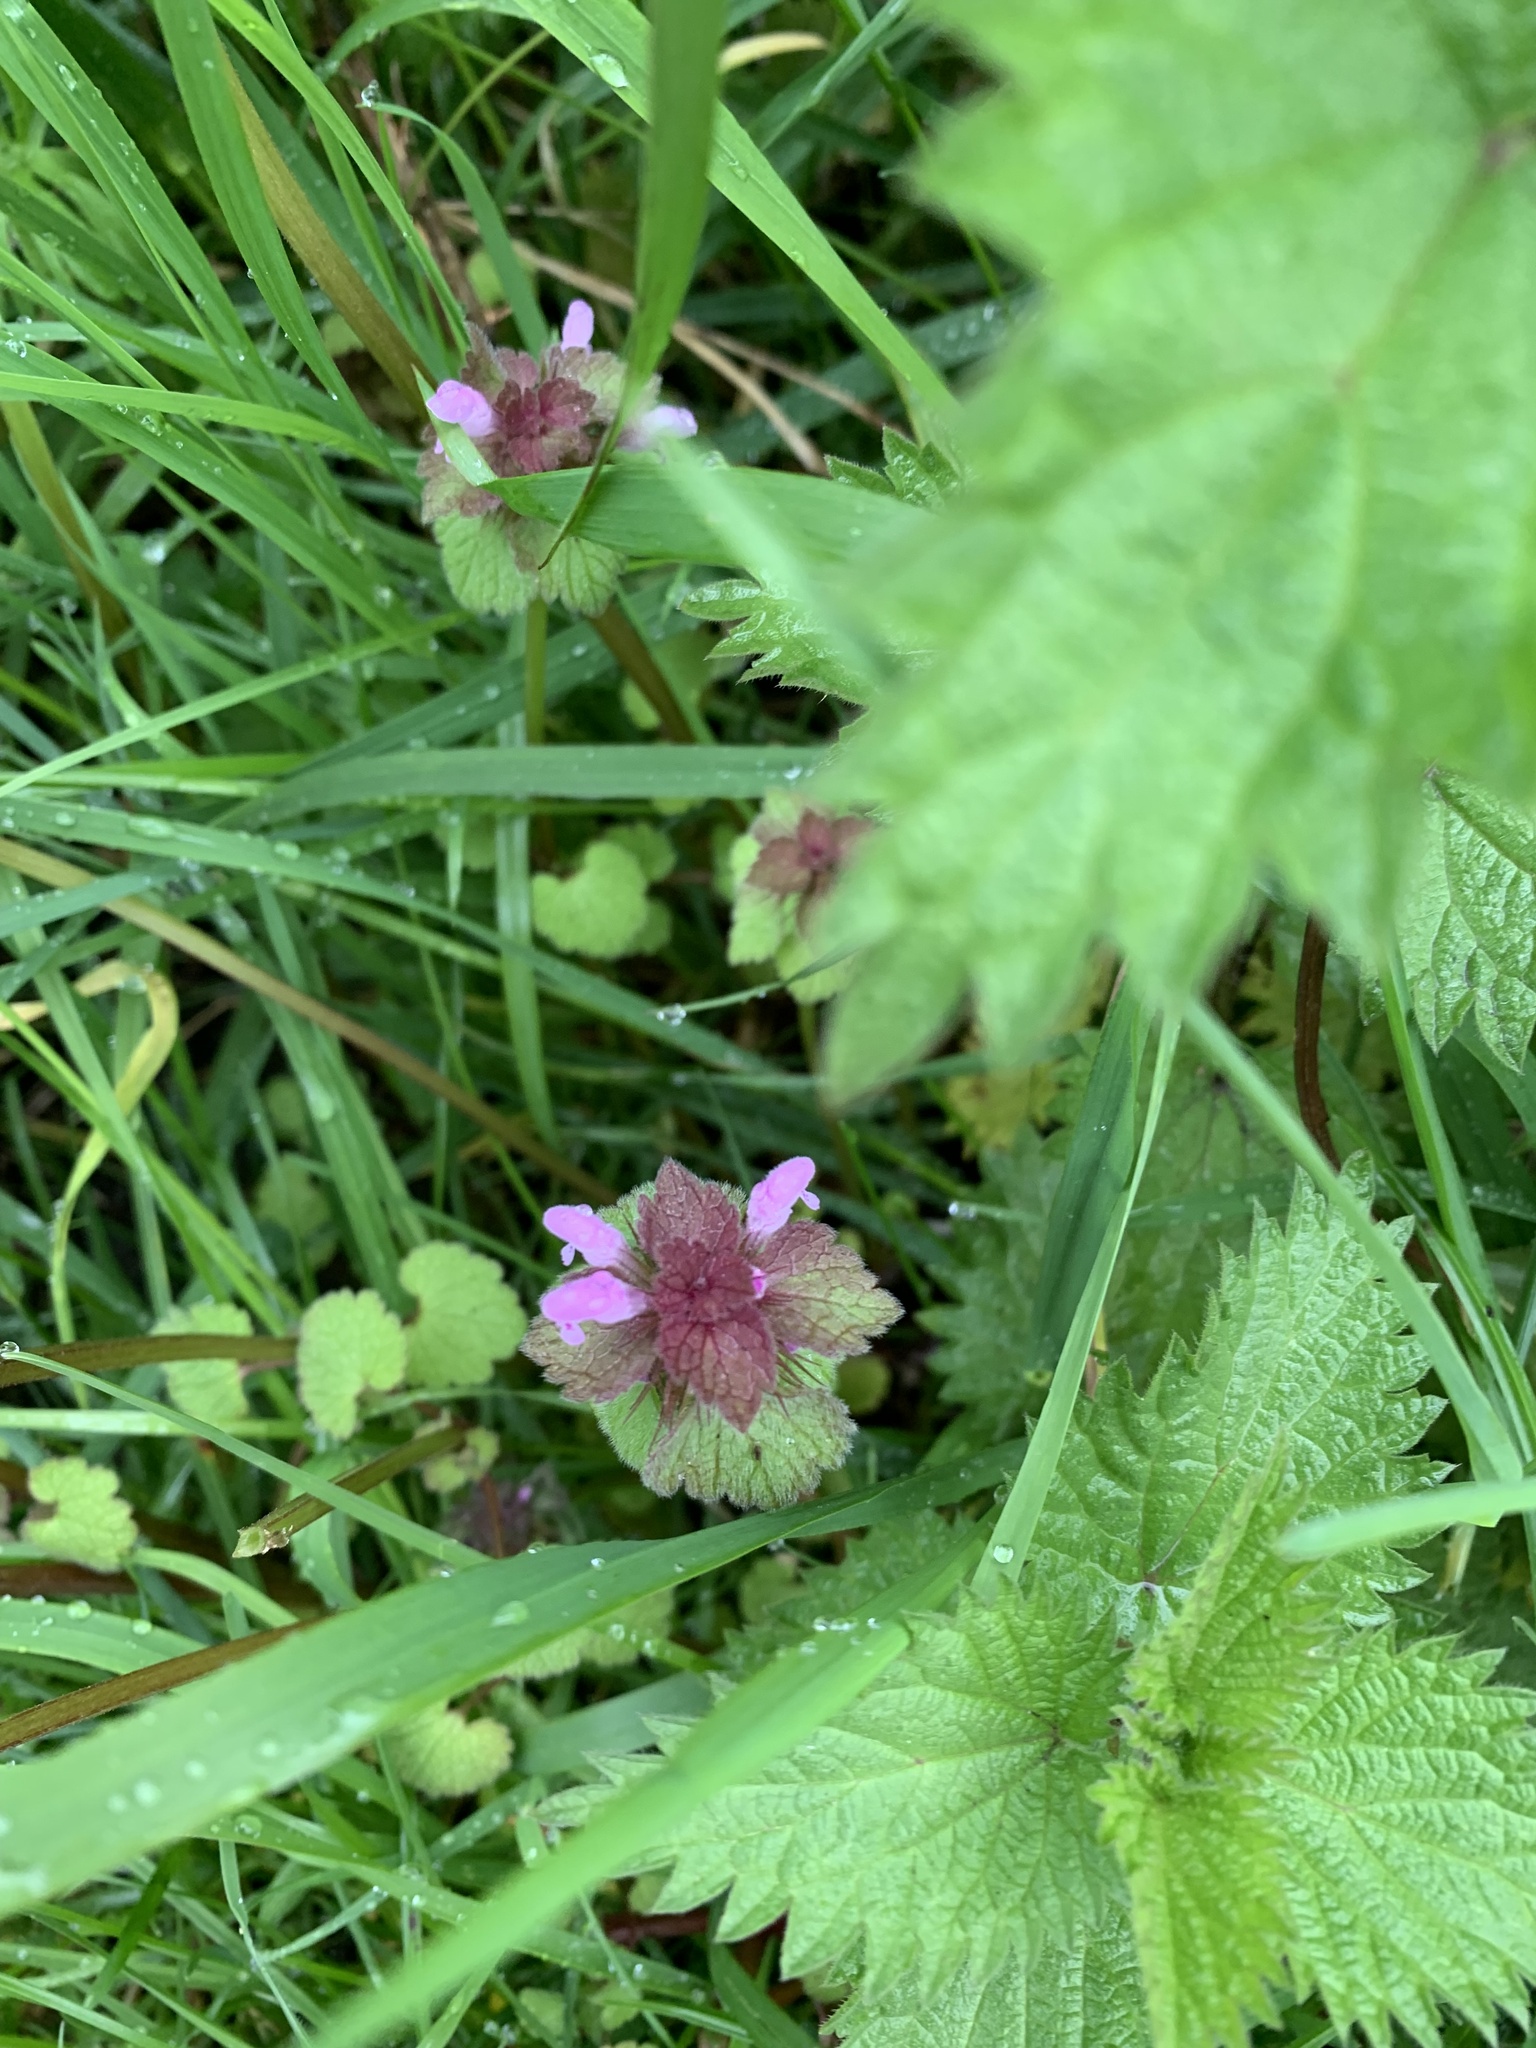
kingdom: Plantae
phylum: Tracheophyta
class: Magnoliopsida
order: Lamiales
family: Lamiaceae
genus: Lamium
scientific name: Lamium purpureum
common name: Red dead-nettle
